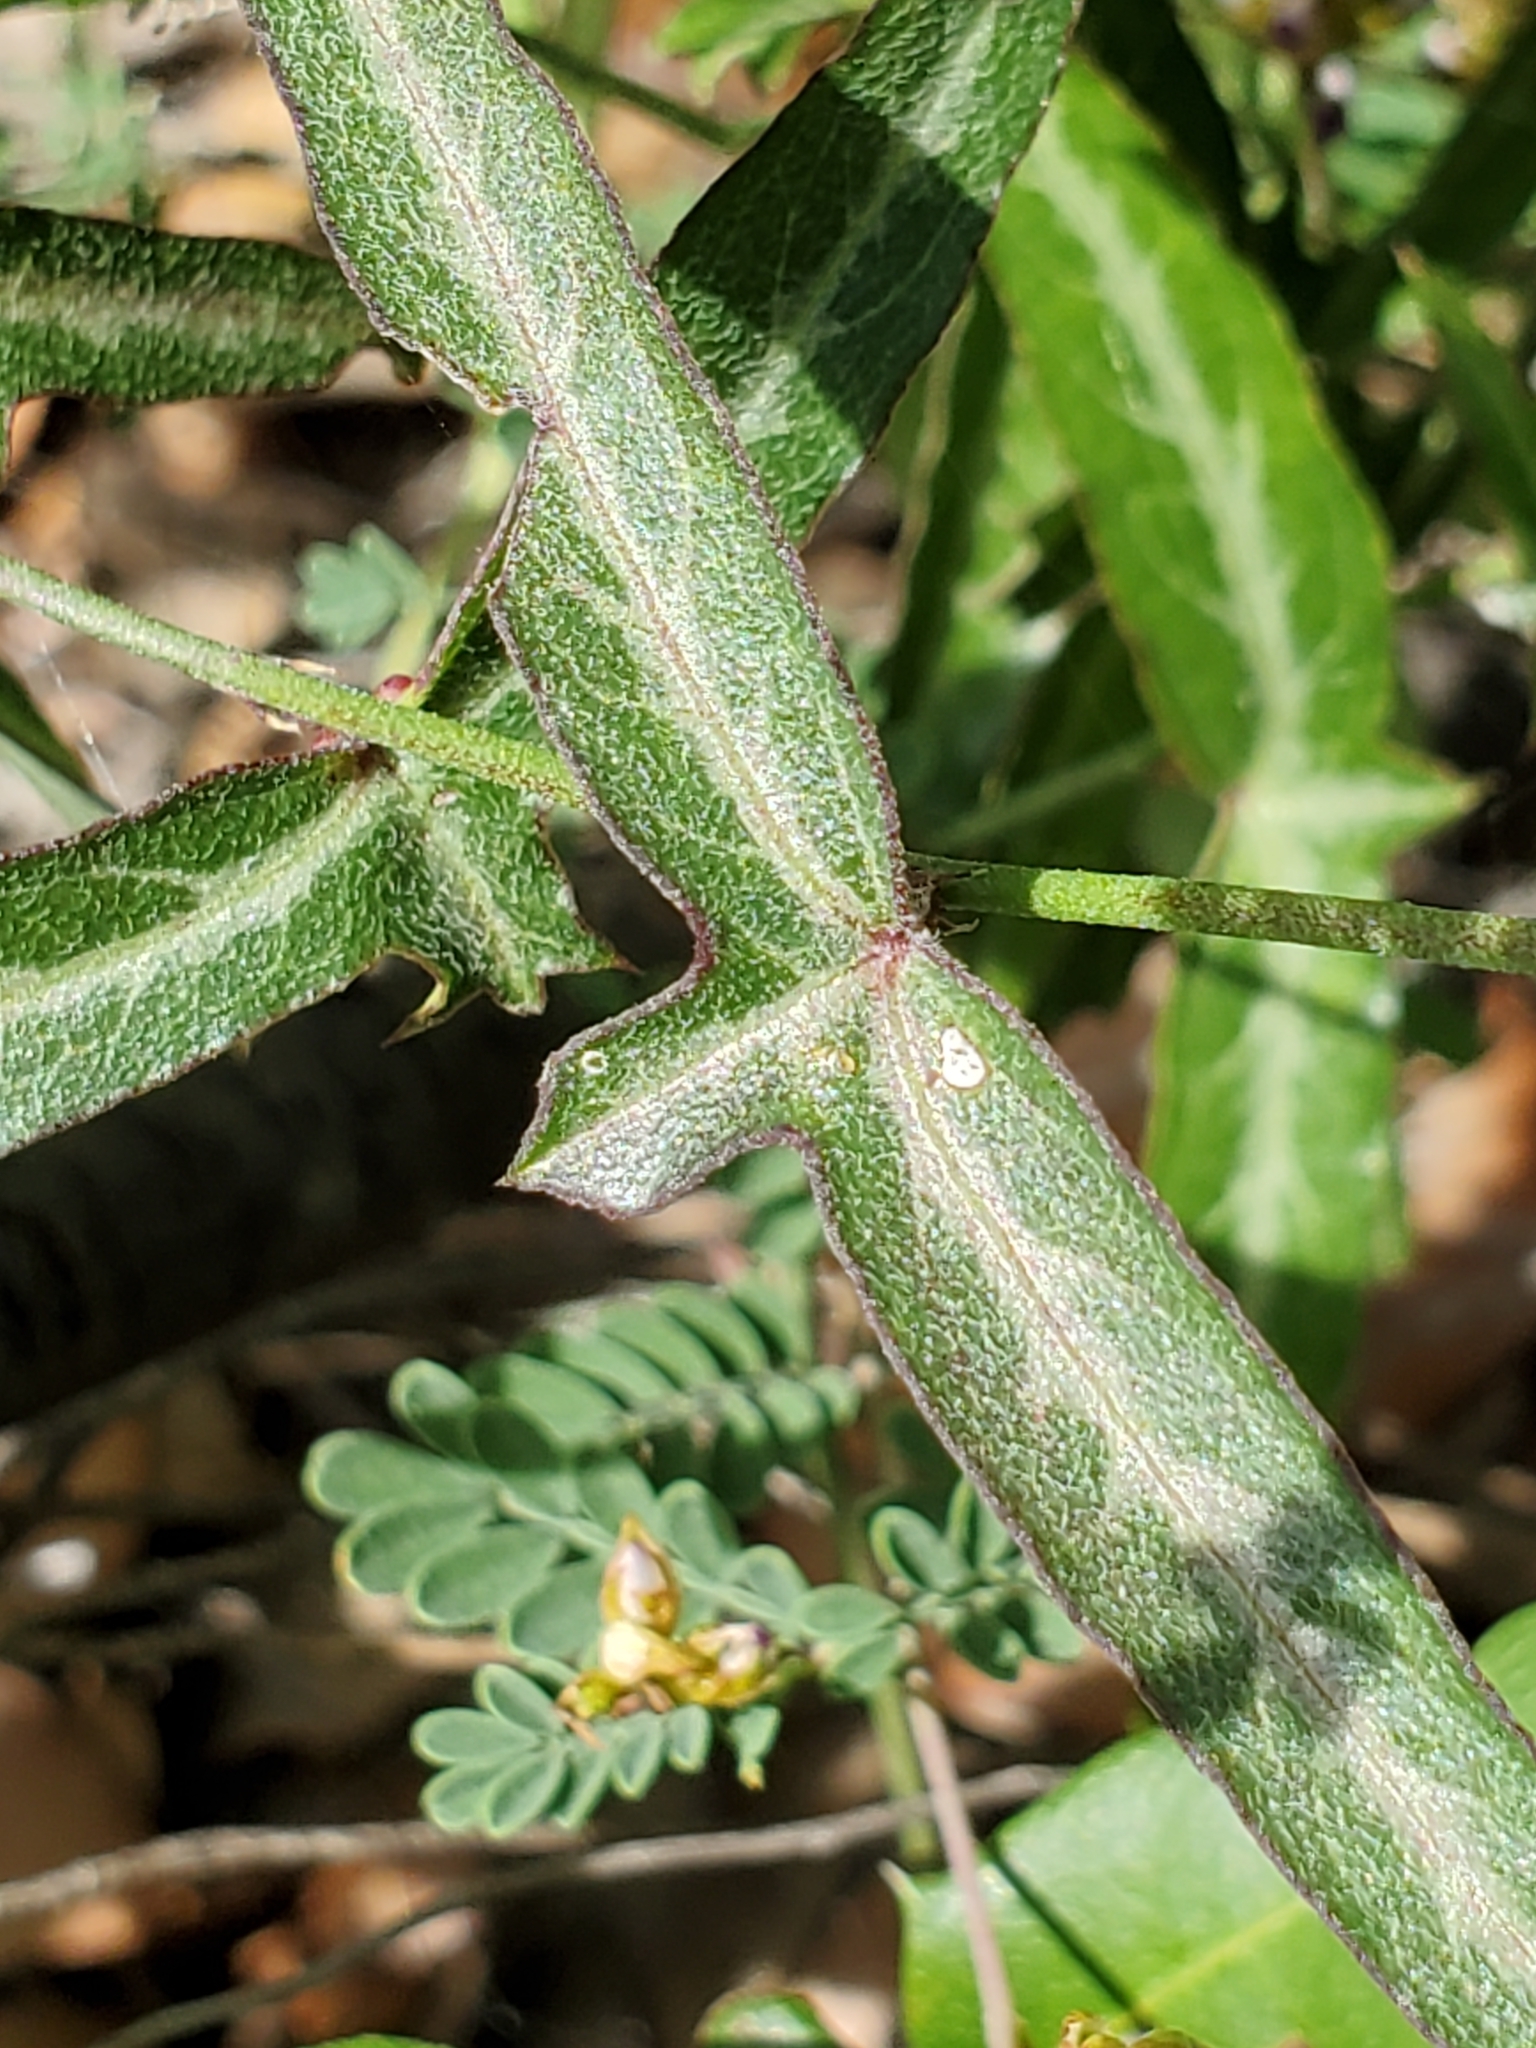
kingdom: Plantae
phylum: Tracheophyta
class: Magnoliopsida
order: Malpighiales
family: Passifloraceae
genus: Passiflora
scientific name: Passiflora tenuiloba
